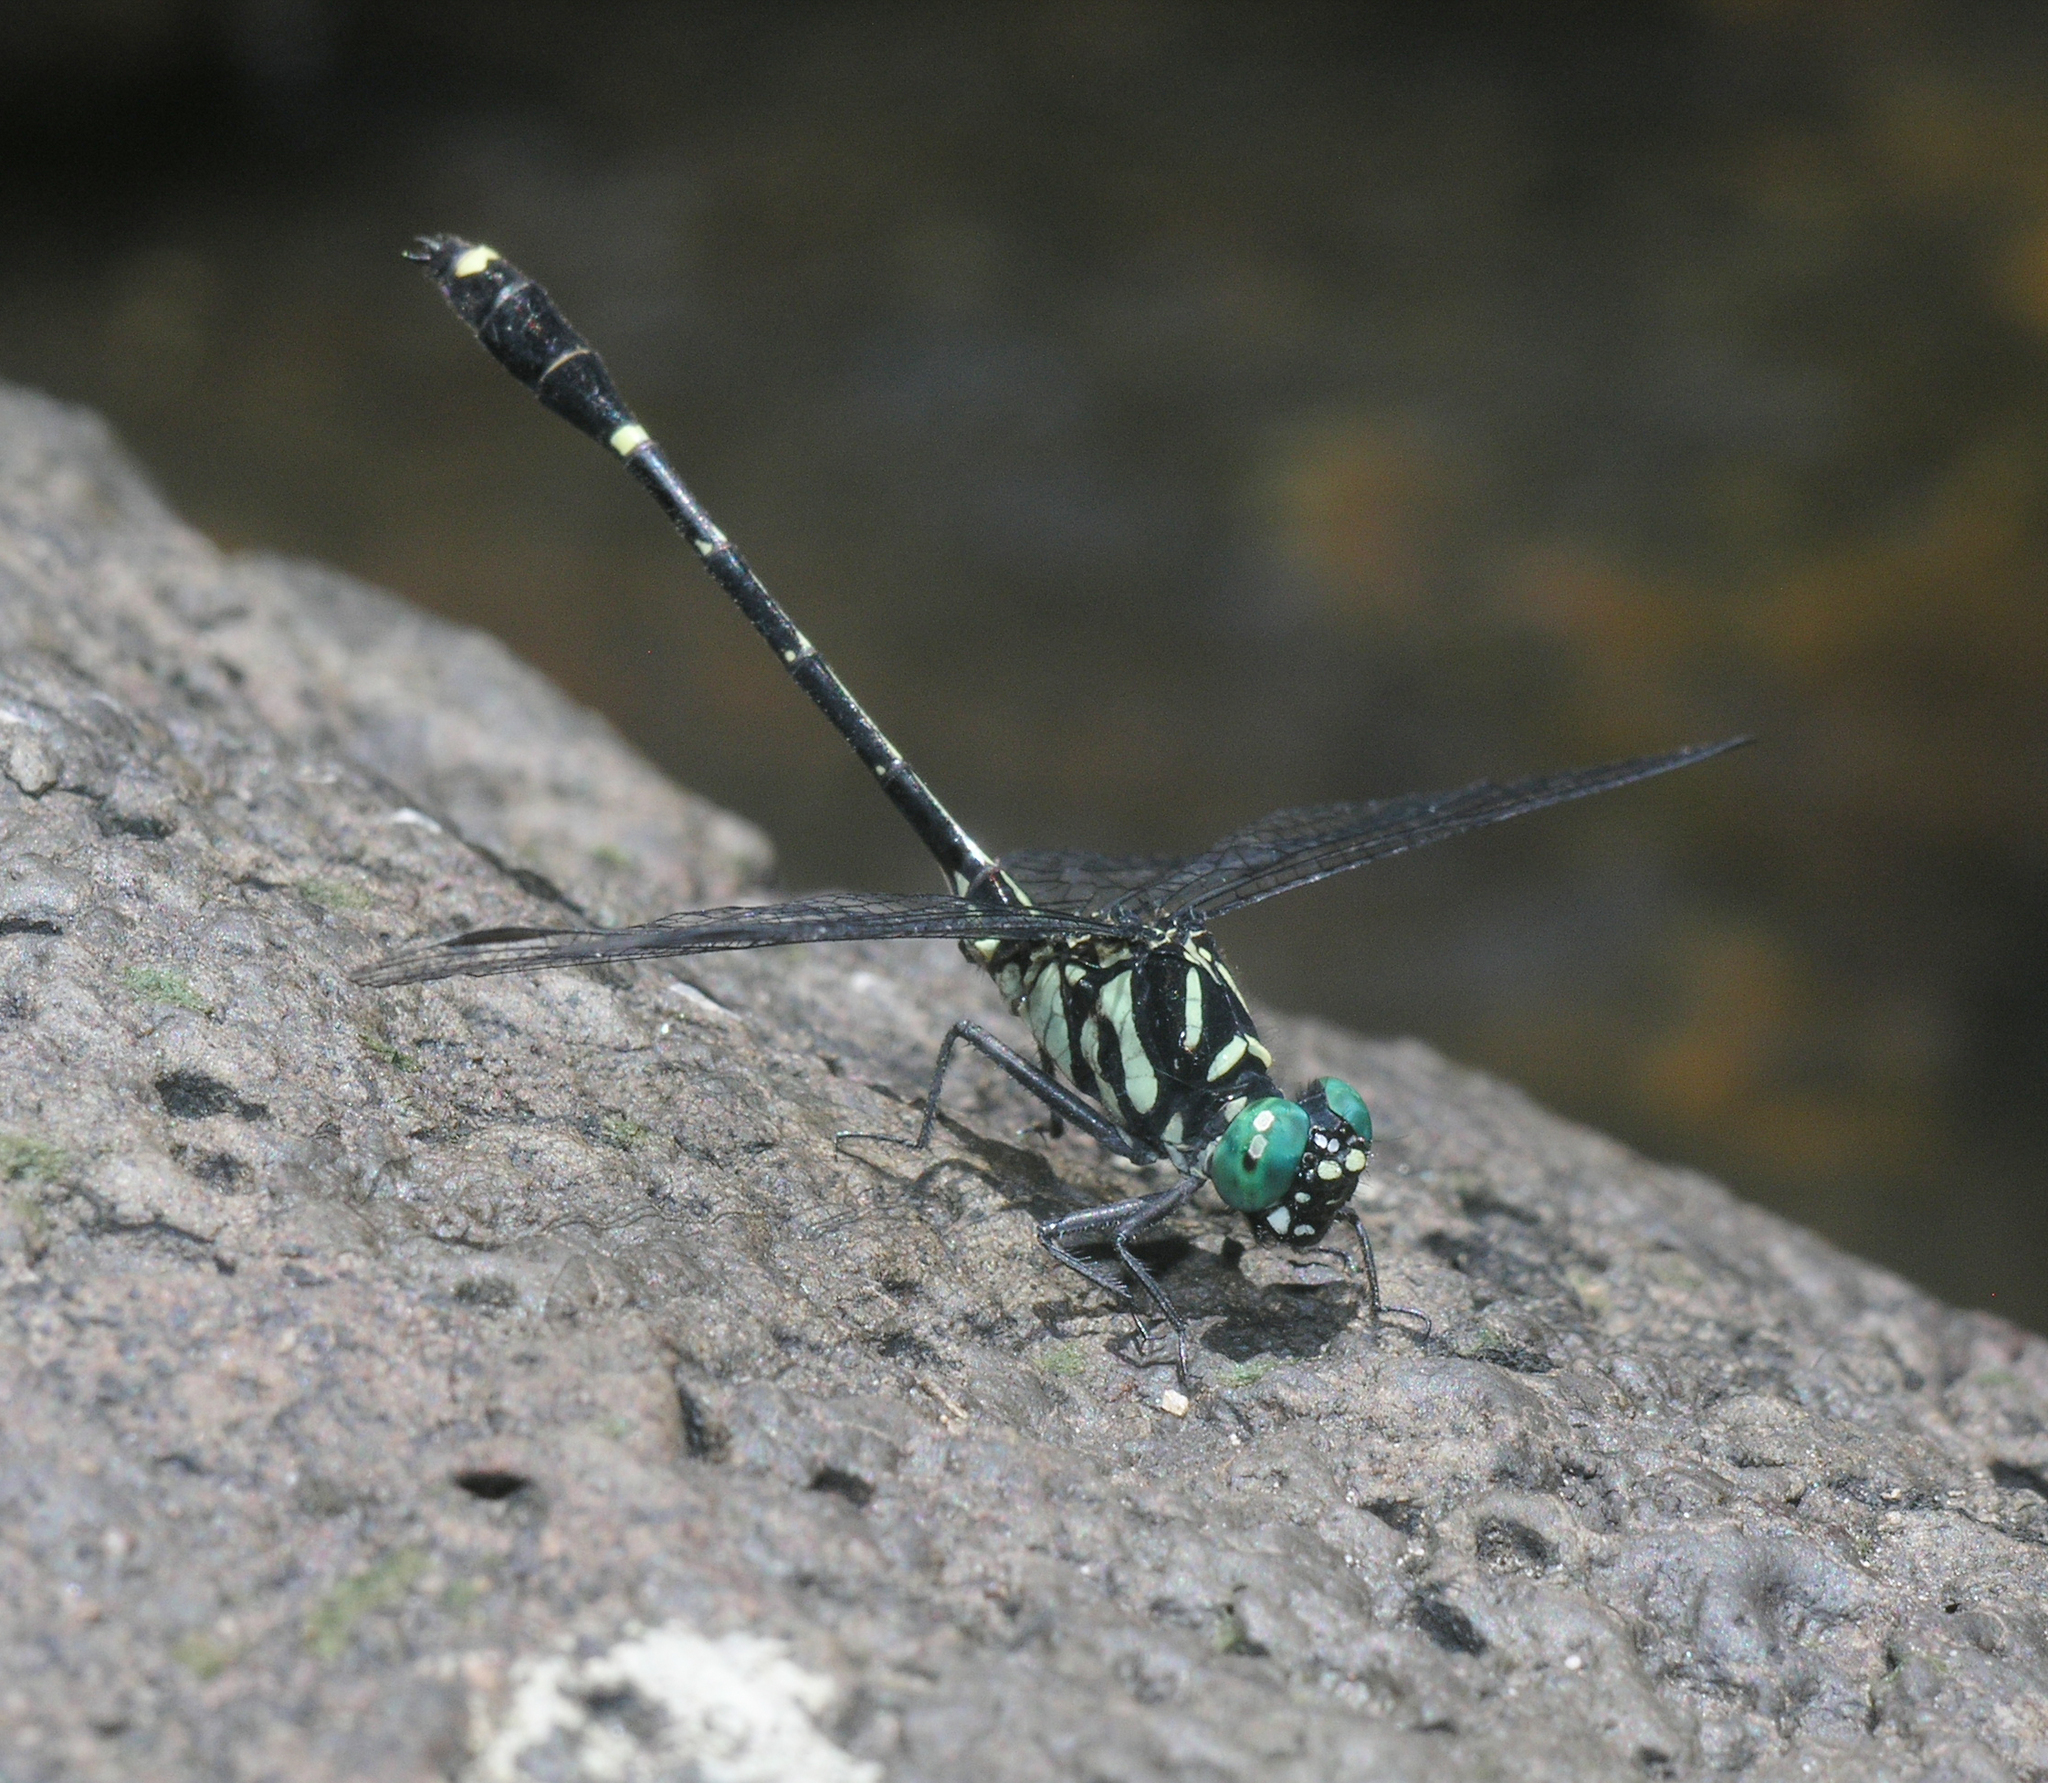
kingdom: Animalia
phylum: Arthropoda
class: Insecta
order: Odonata
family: Gomphidae
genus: Burmagomphus
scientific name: Burmagomphus divaricatus
